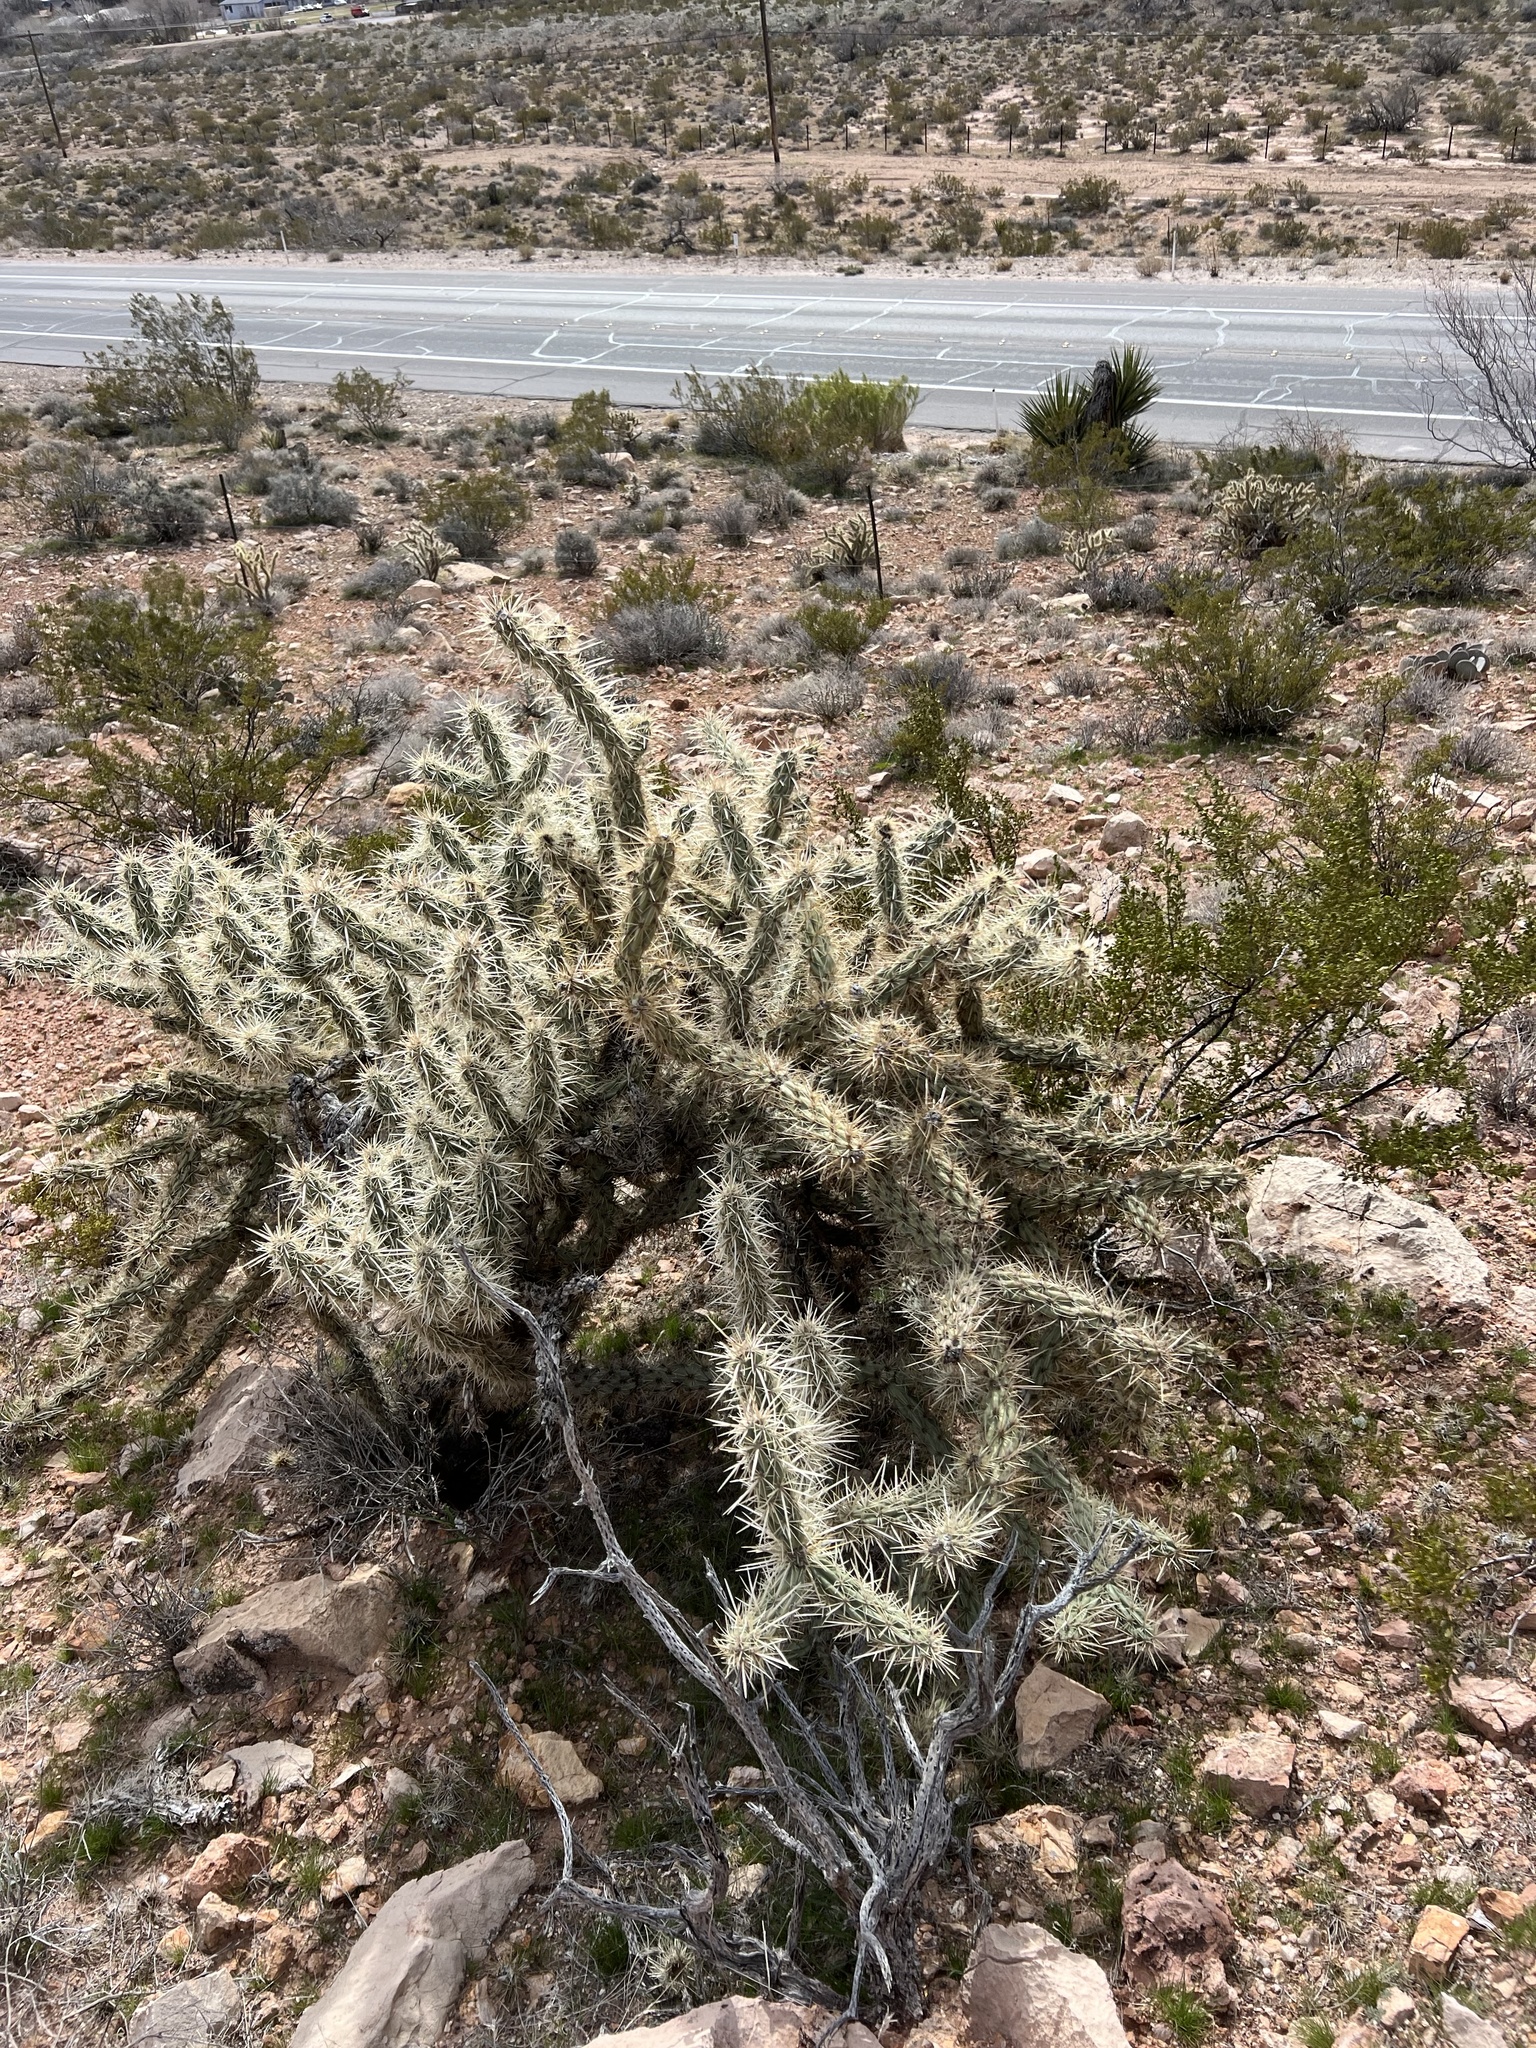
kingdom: Plantae
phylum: Tracheophyta
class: Magnoliopsida
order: Caryophyllales
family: Cactaceae
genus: Cylindropuntia
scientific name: Cylindropuntia acanthocarpa
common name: Buckhorn cholla
